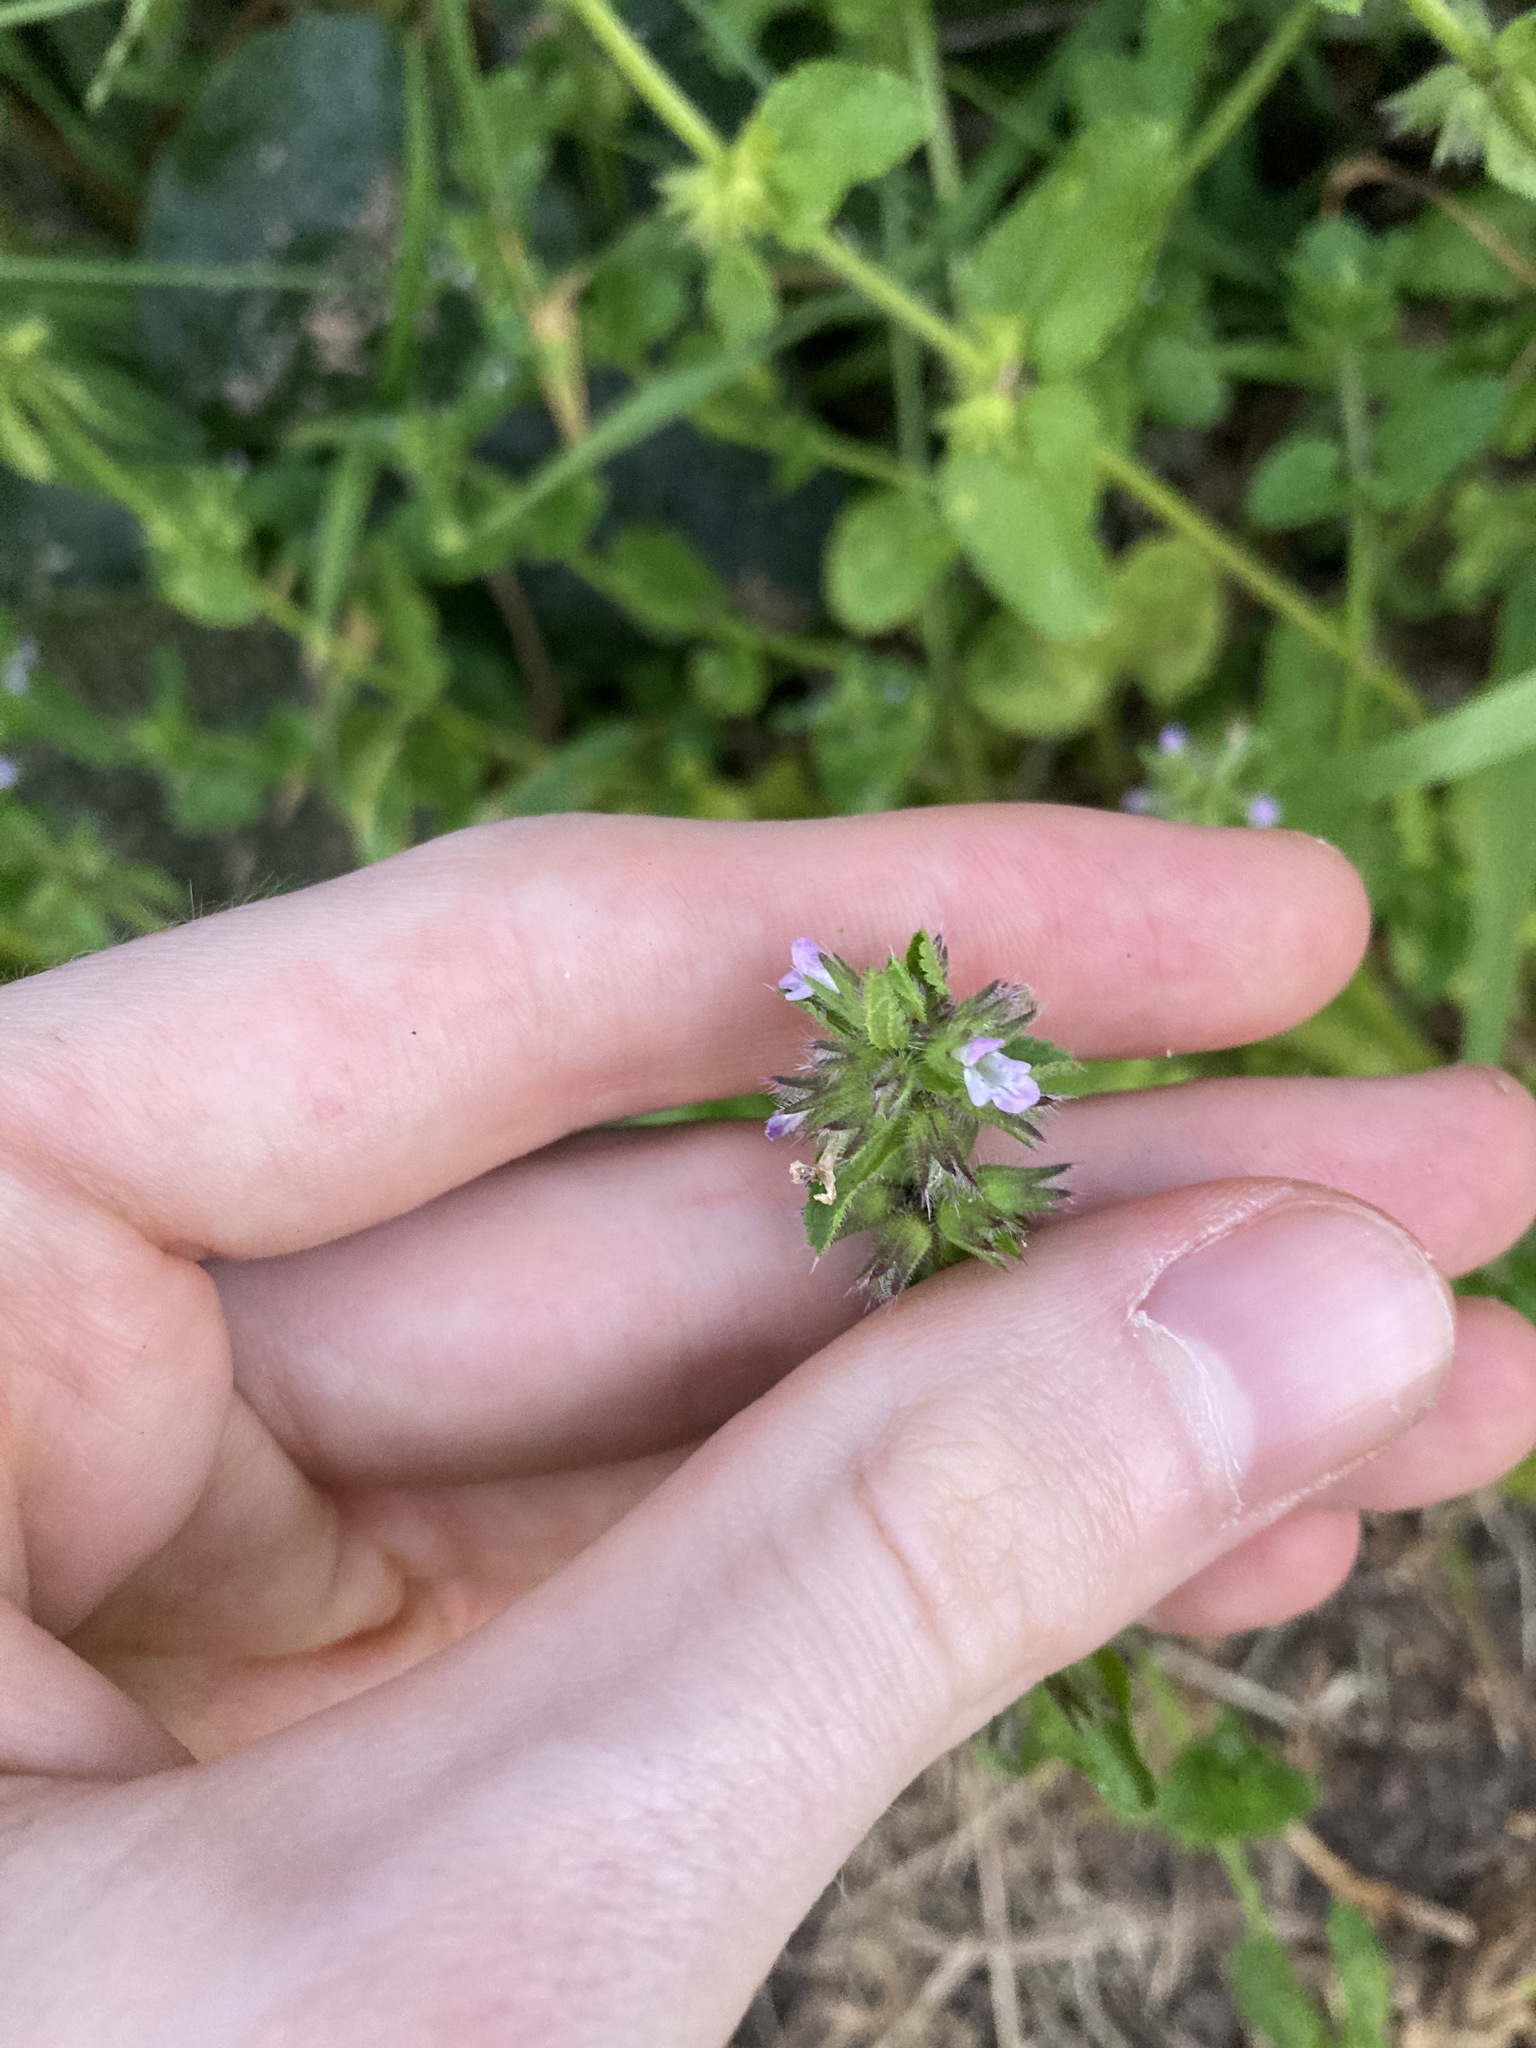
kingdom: Plantae
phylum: Tracheophyta
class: Magnoliopsida
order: Lamiales
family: Lamiaceae
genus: Stachys
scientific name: Stachys arvensis
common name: Field woundwort
